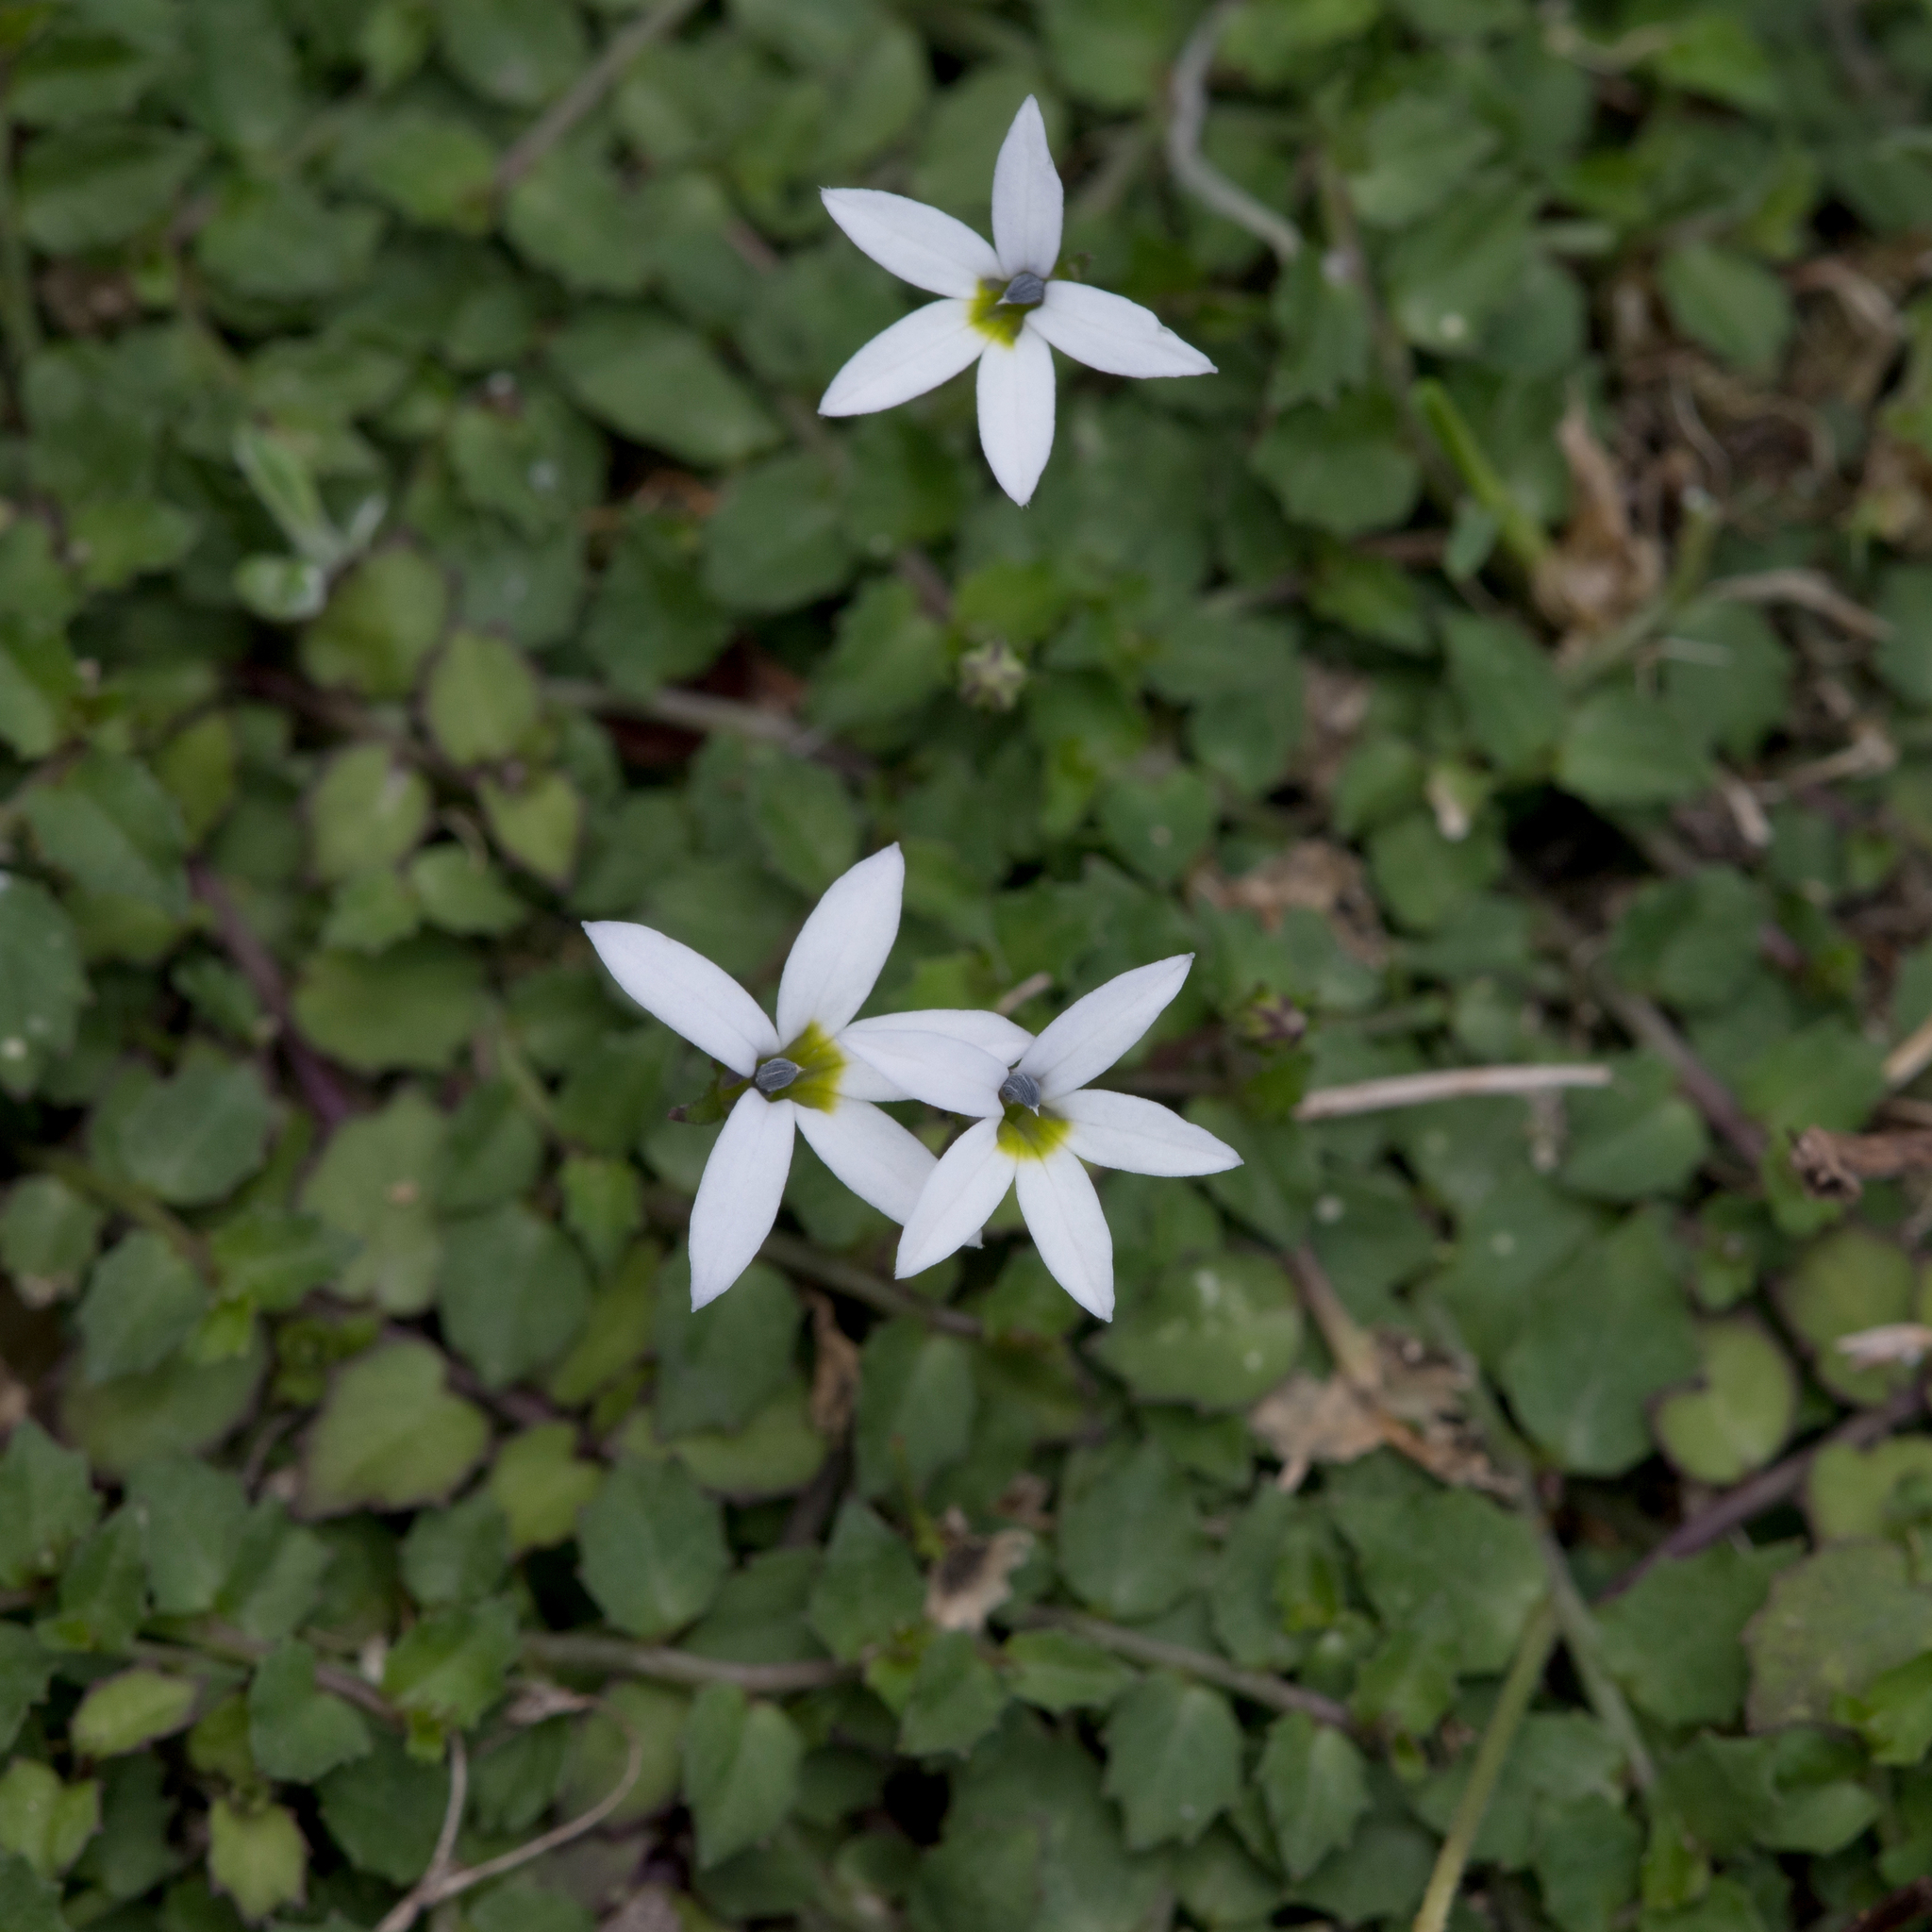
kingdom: Plantae
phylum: Tracheophyta
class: Magnoliopsida
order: Asterales
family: Campanulaceae
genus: Lobelia
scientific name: Lobelia pedunculata
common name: Matted pratia
